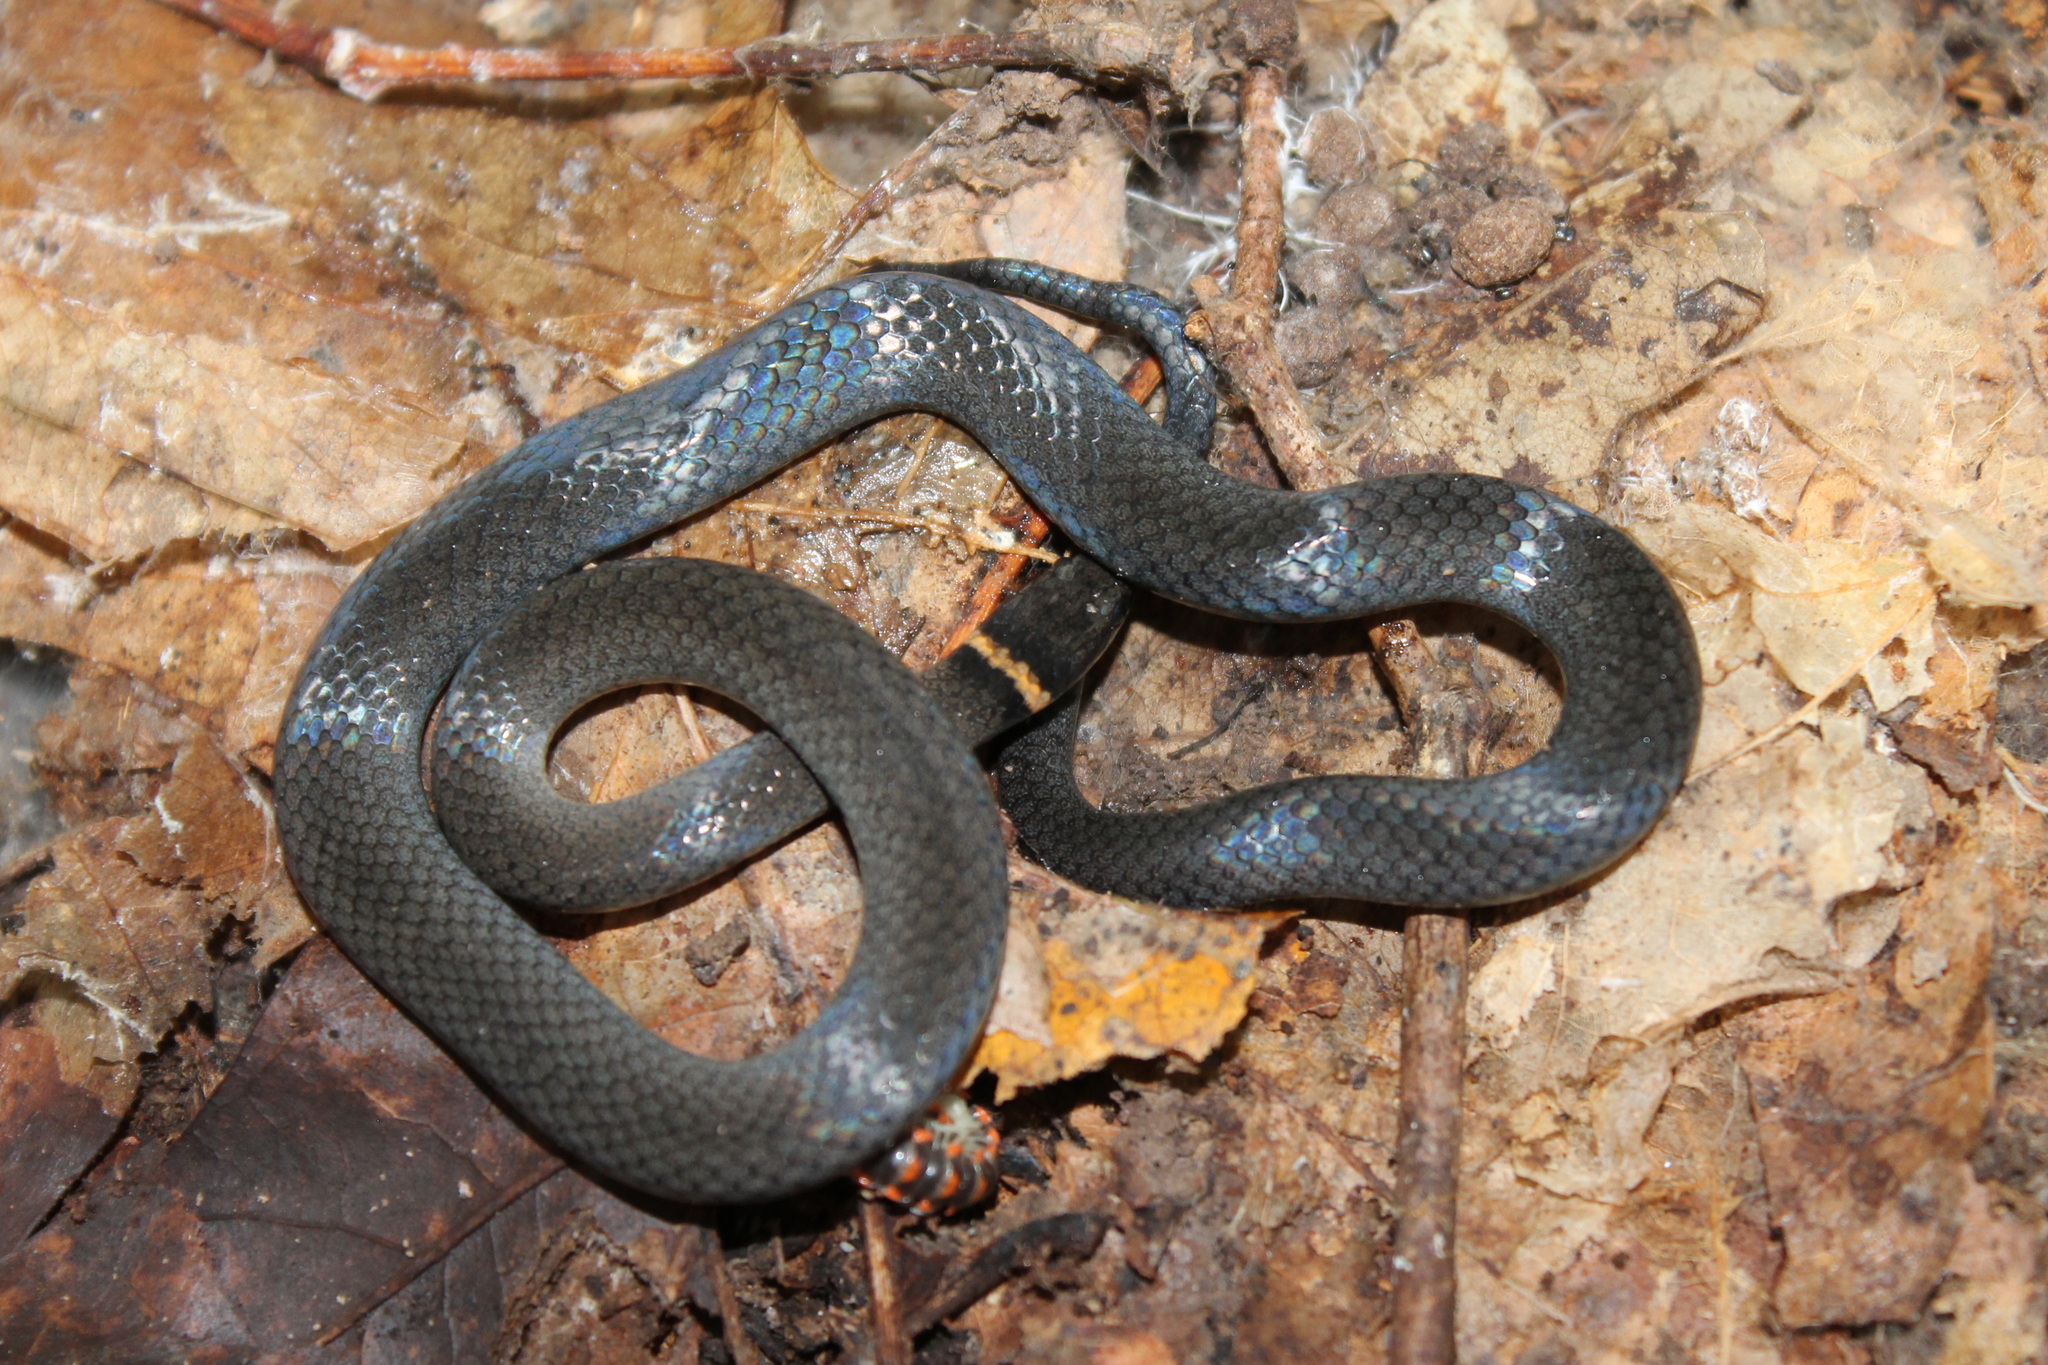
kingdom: Animalia
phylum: Chordata
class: Squamata
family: Colubridae
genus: Diadophis
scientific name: Diadophis punctatus
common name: Ringneck snake
